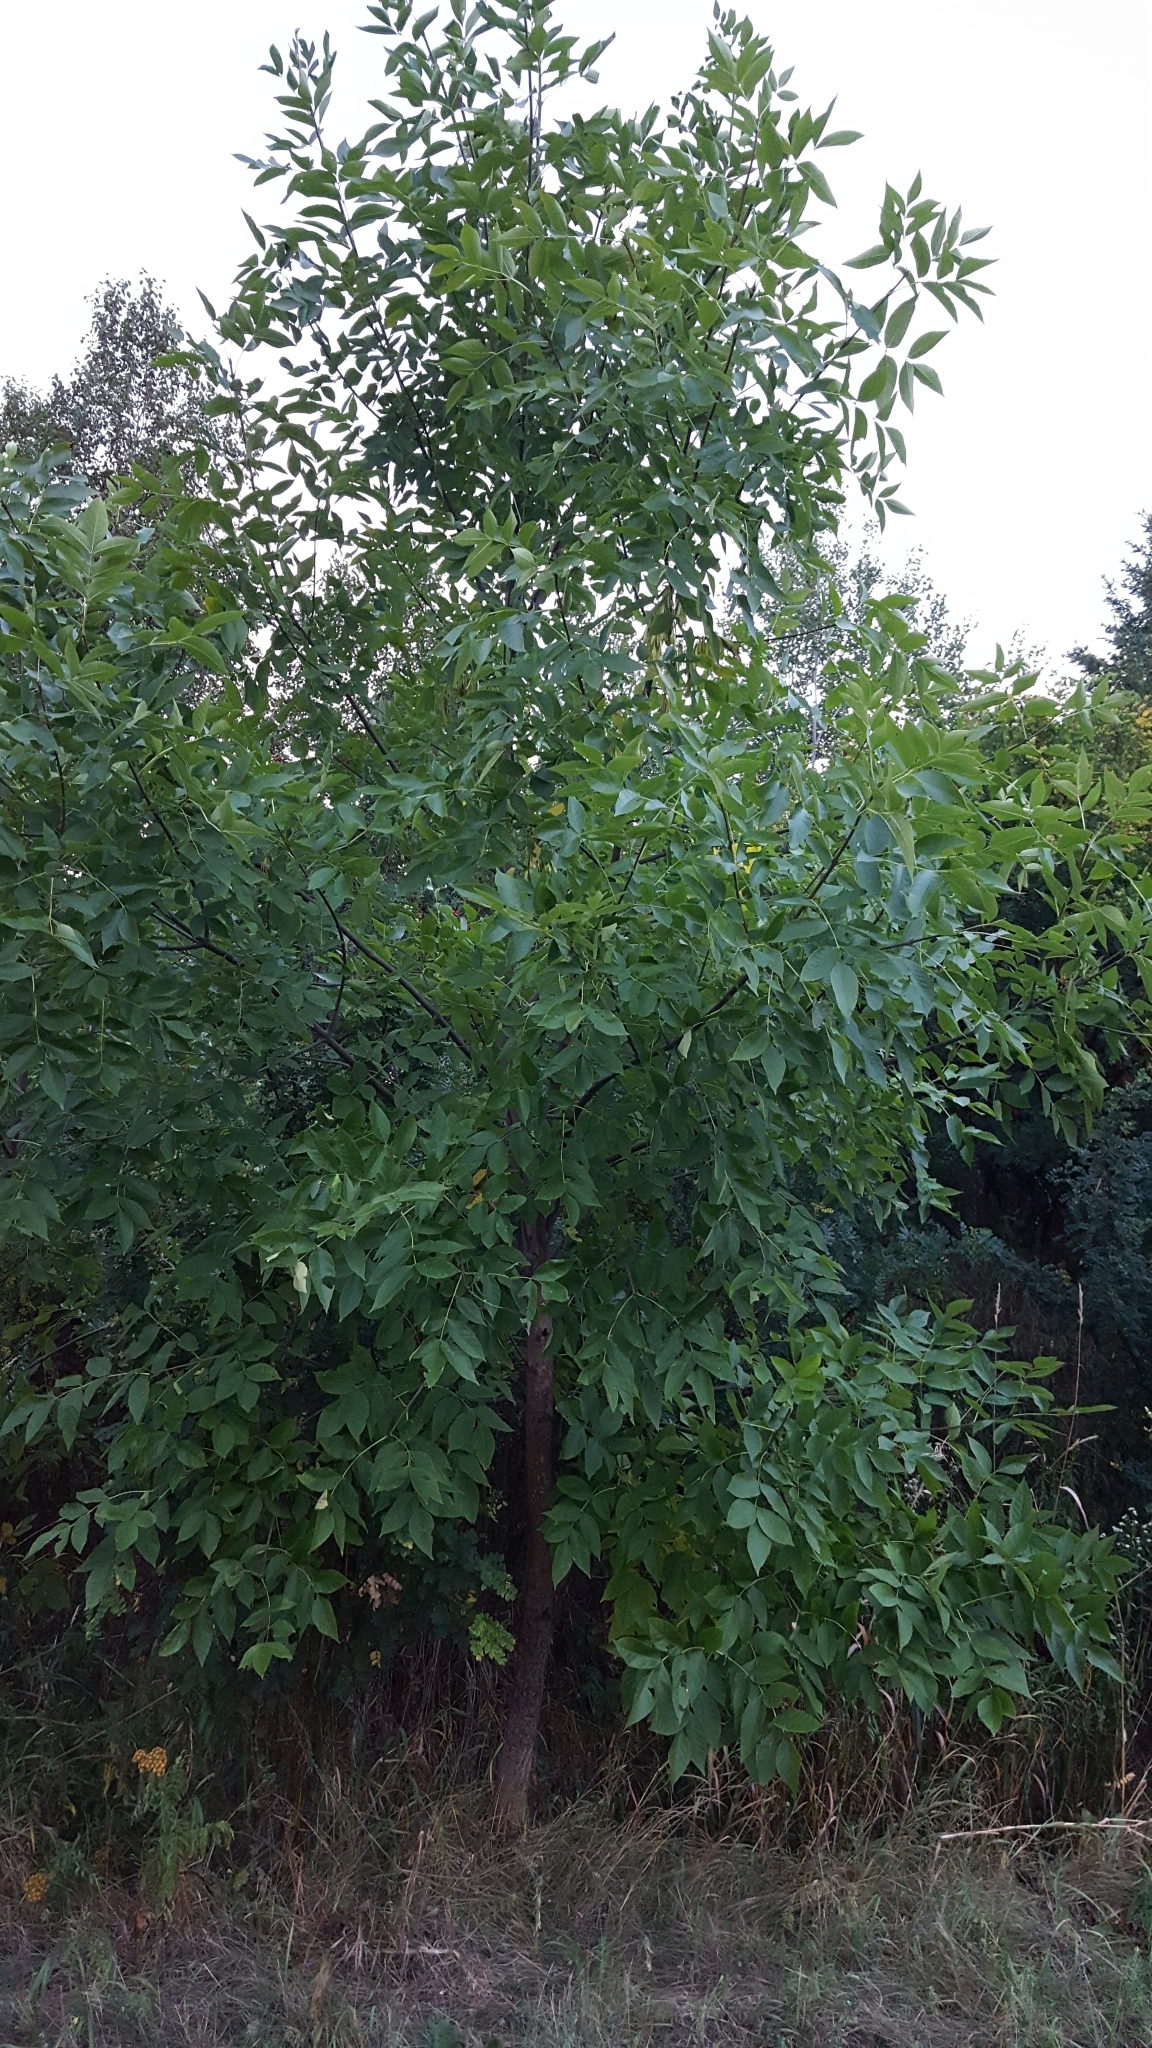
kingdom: Plantae
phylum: Tracheophyta
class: Magnoliopsida
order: Lamiales
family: Oleaceae
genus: Fraxinus
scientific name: Fraxinus pennsylvanica
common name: Green ash
